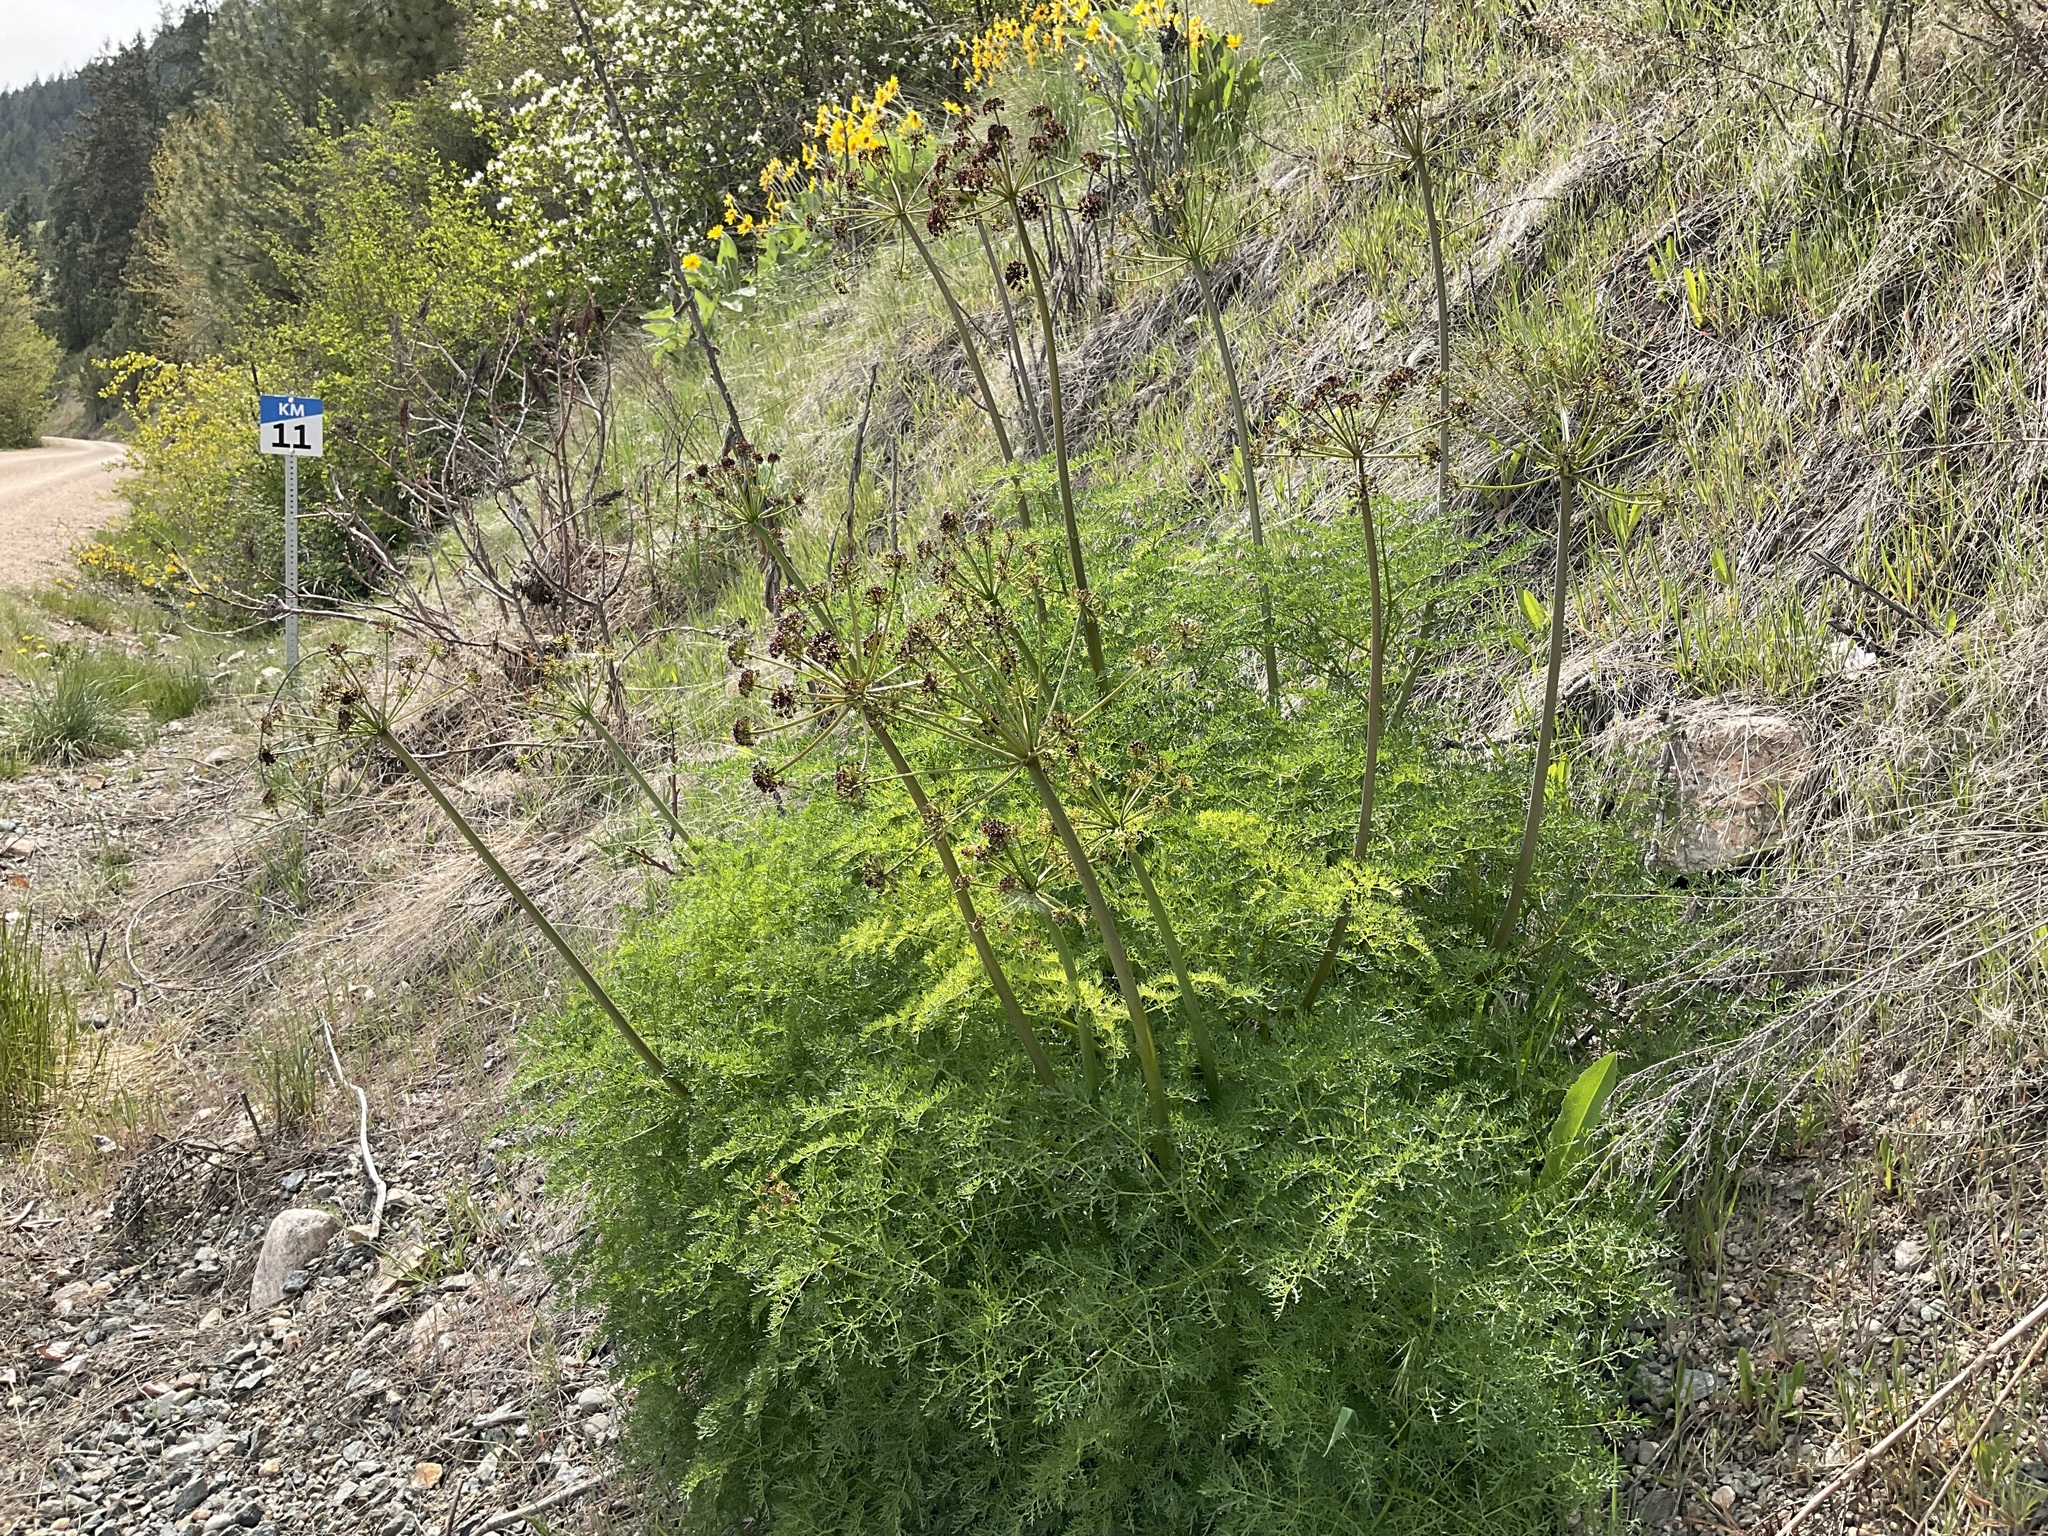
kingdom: Plantae
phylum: Tracheophyta
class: Magnoliopsida
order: Apiales
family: Apiaceae
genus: Lomatium
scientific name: Lomatium multifidum
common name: Carrot-leaved biscuitroot
